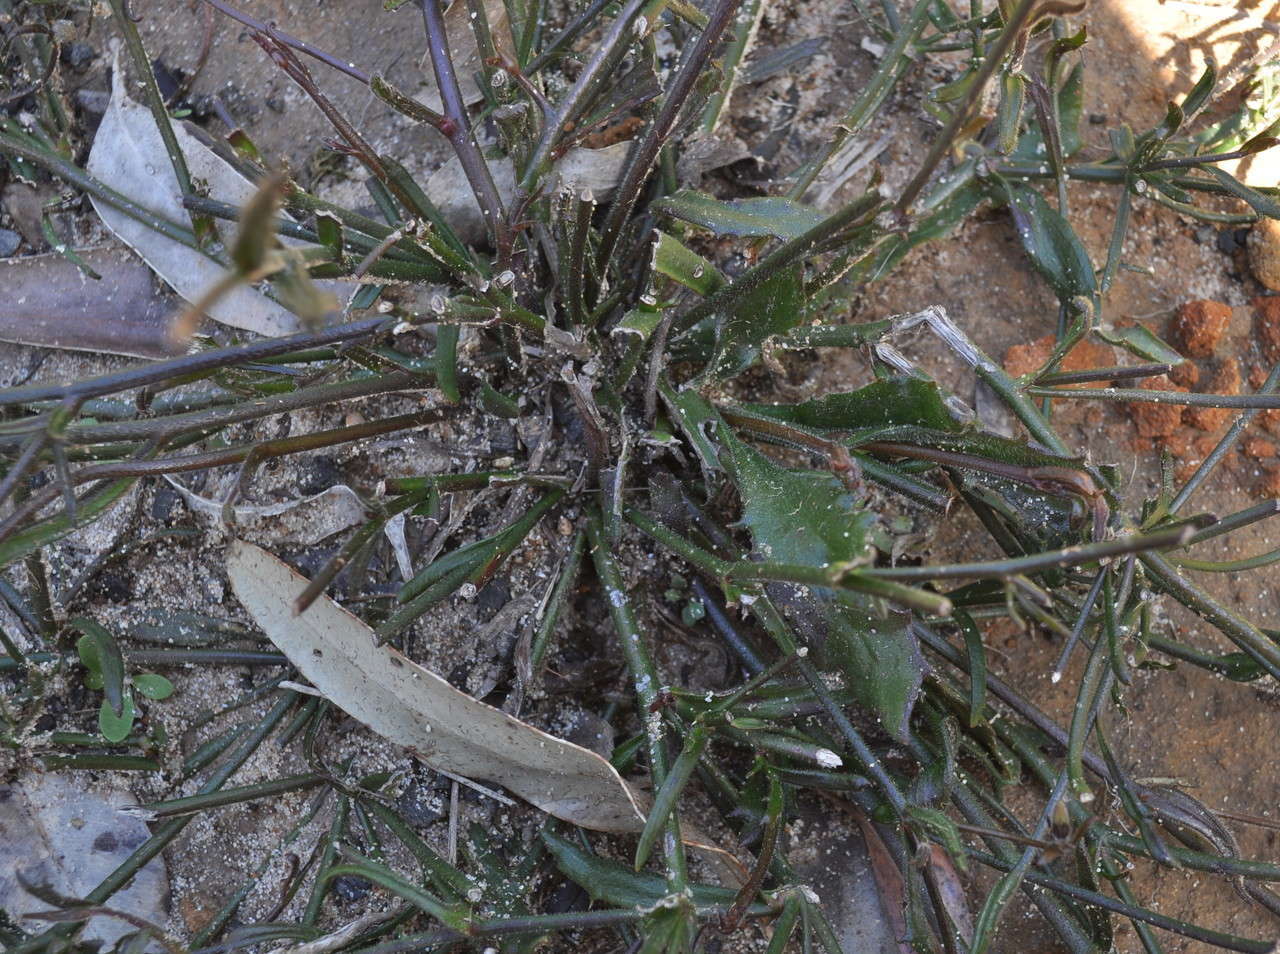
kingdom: Plantae
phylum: Tracheophyta
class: Magnoliopsida
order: Asterales
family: Goodeniaceae
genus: Scaevola
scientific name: Scaevola ramosissima
